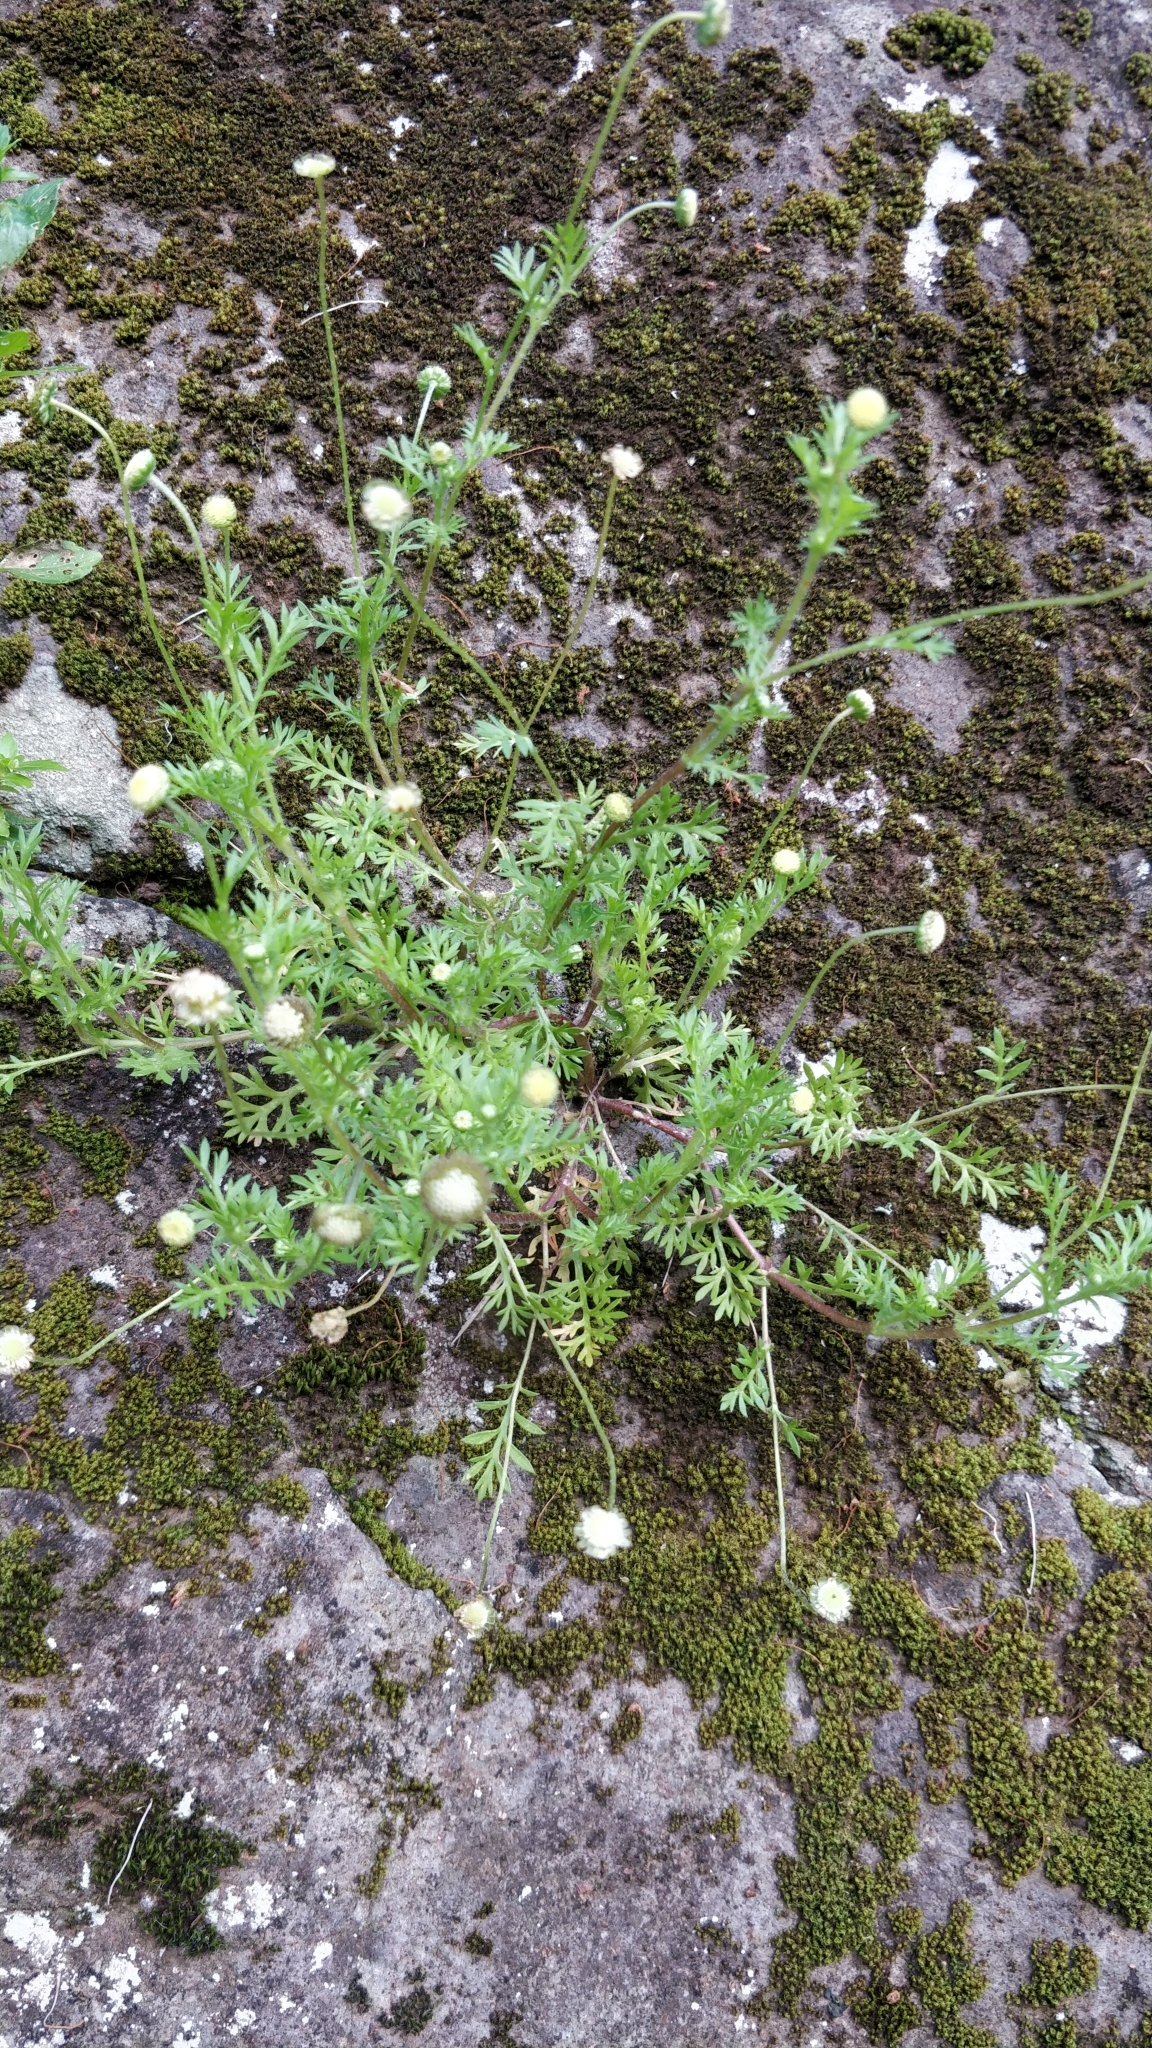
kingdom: Plantae
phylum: Tracheophyta
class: Magnoliopsida
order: Asterales
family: Asteraceae
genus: Cotula
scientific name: Cotula australis
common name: Australian waterbuttons
